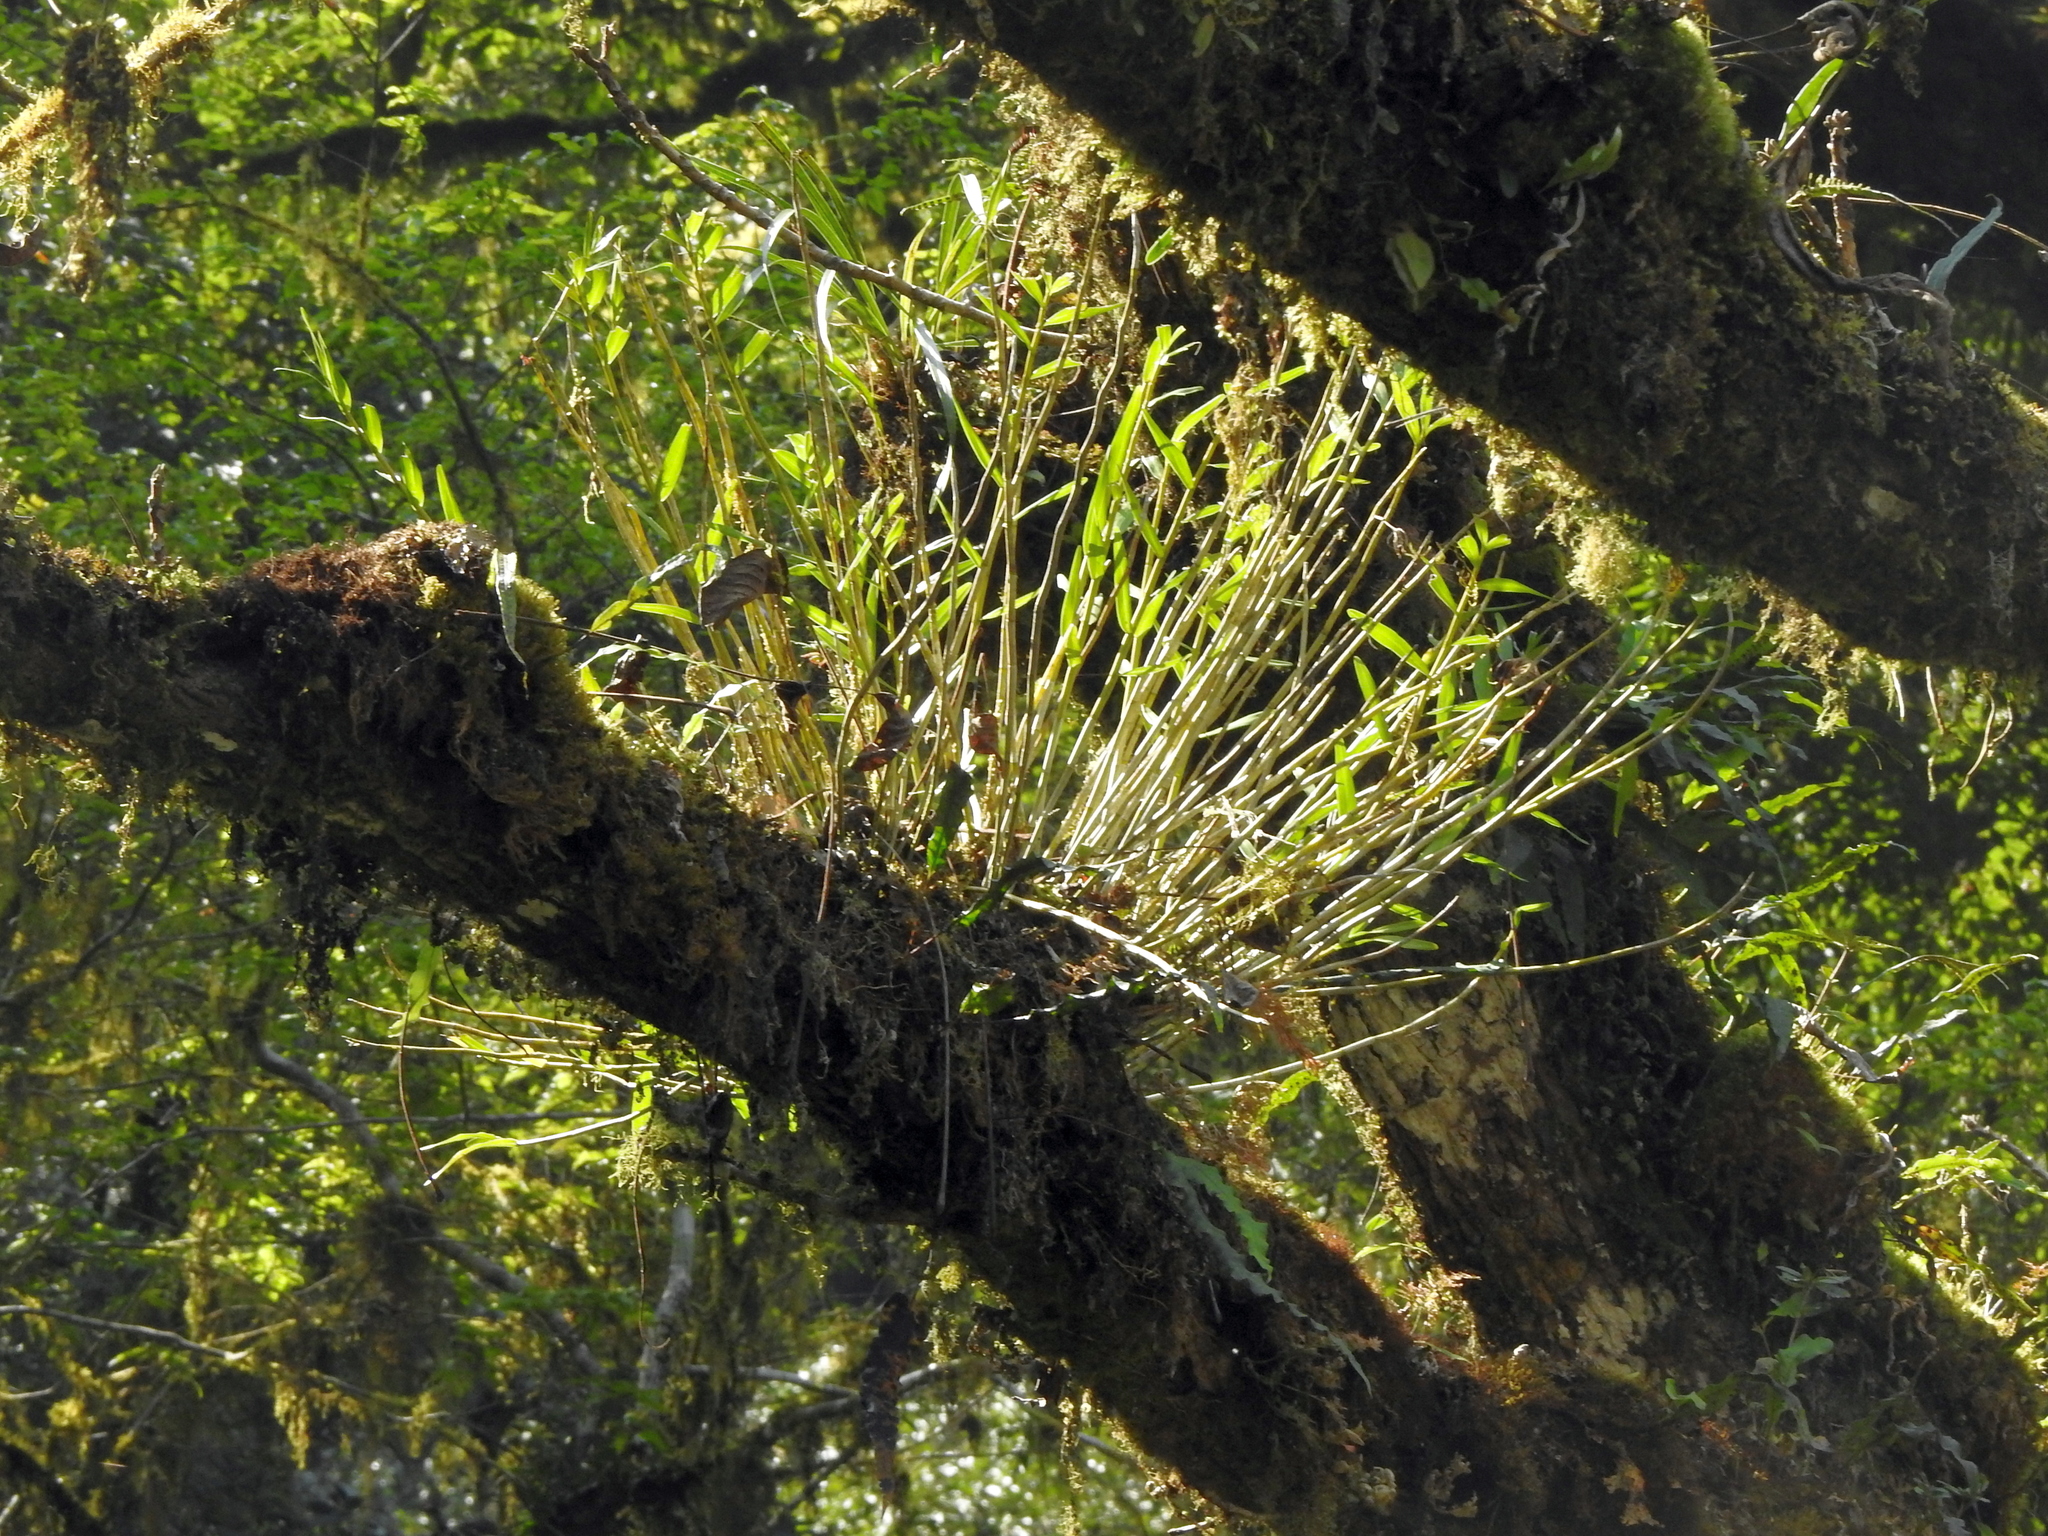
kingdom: Plantae
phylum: Tracheophyta
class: Liliopsida
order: Asparagales
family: Orchidaceae
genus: Dendrobium
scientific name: Dendrobium chryseum
